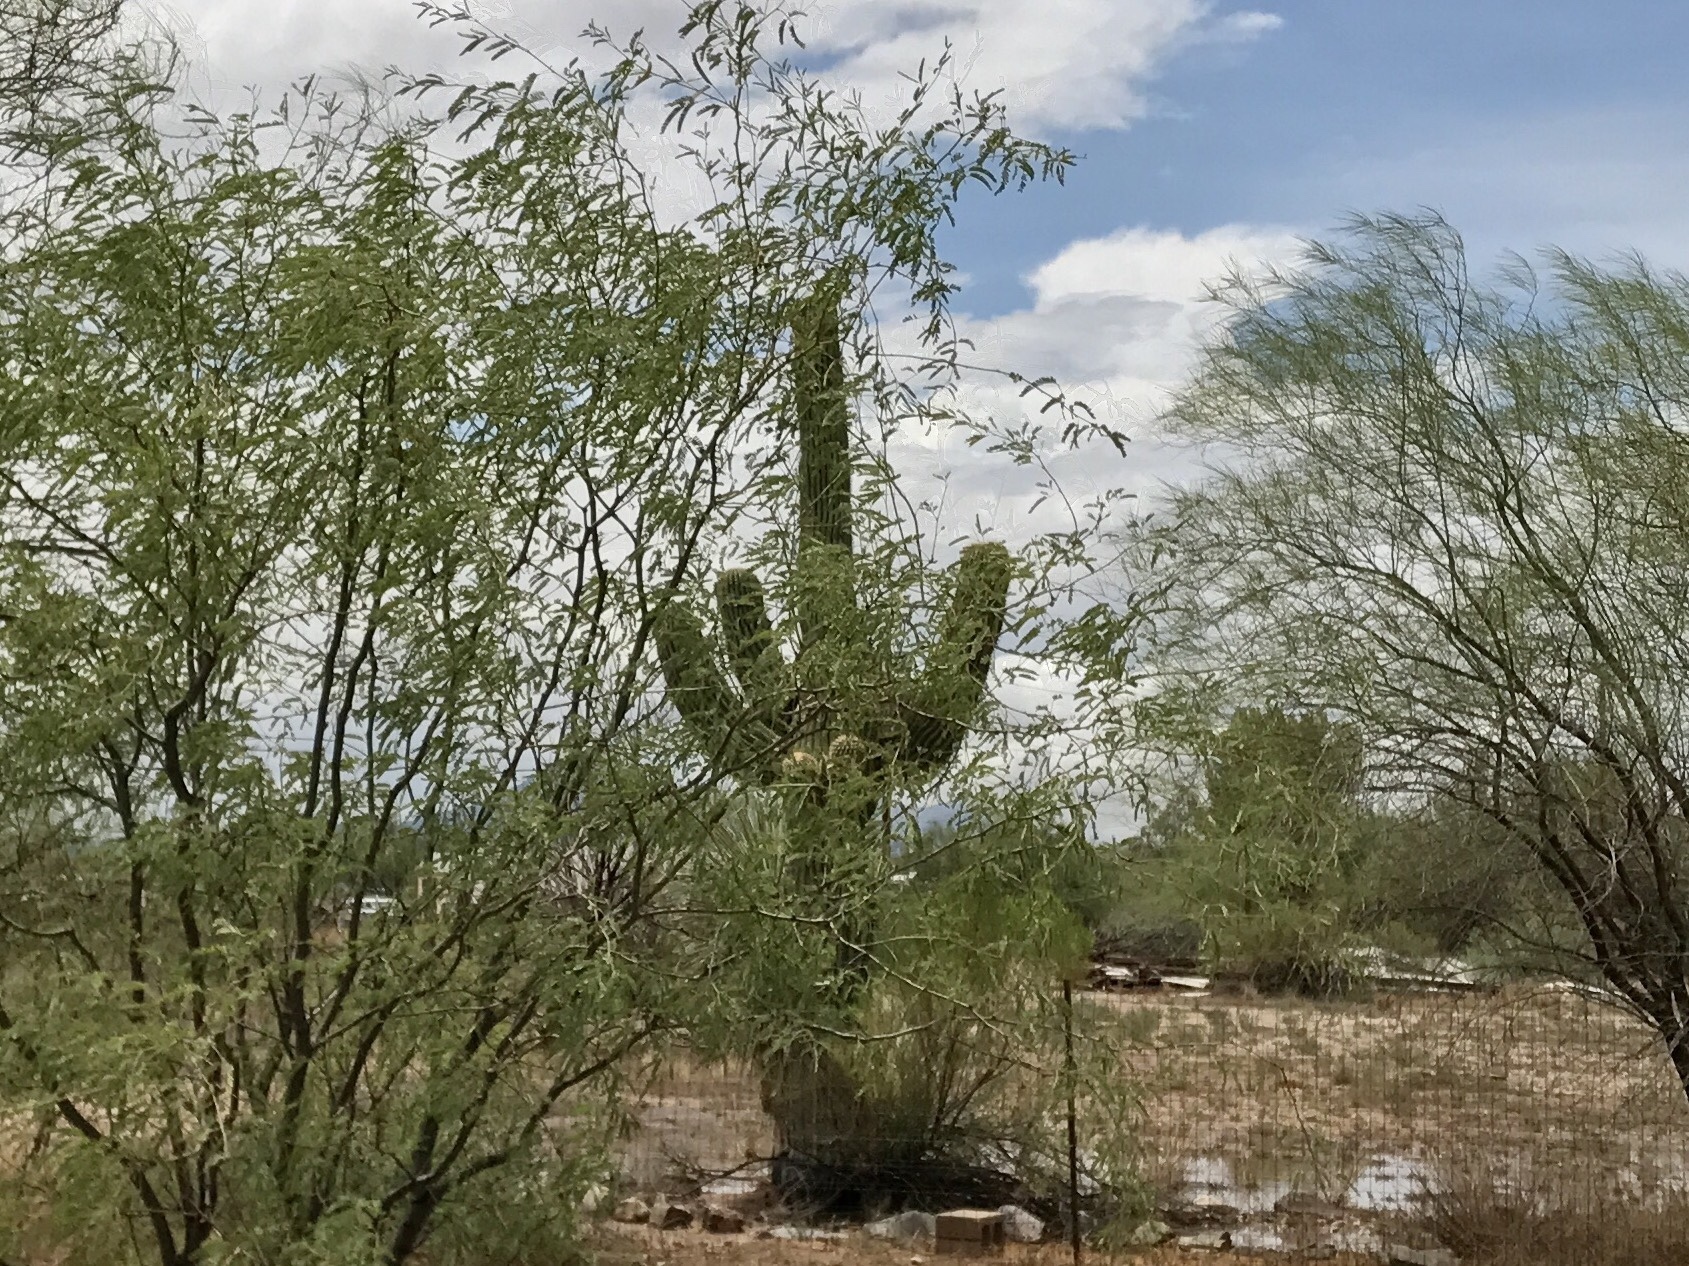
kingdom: Plantae
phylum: Tracheophyta
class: Magnoliopsida
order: Caryophyllales
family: Cactaceae
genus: Carnegiea
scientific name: Carnegiea gigantea
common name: Saguaro
